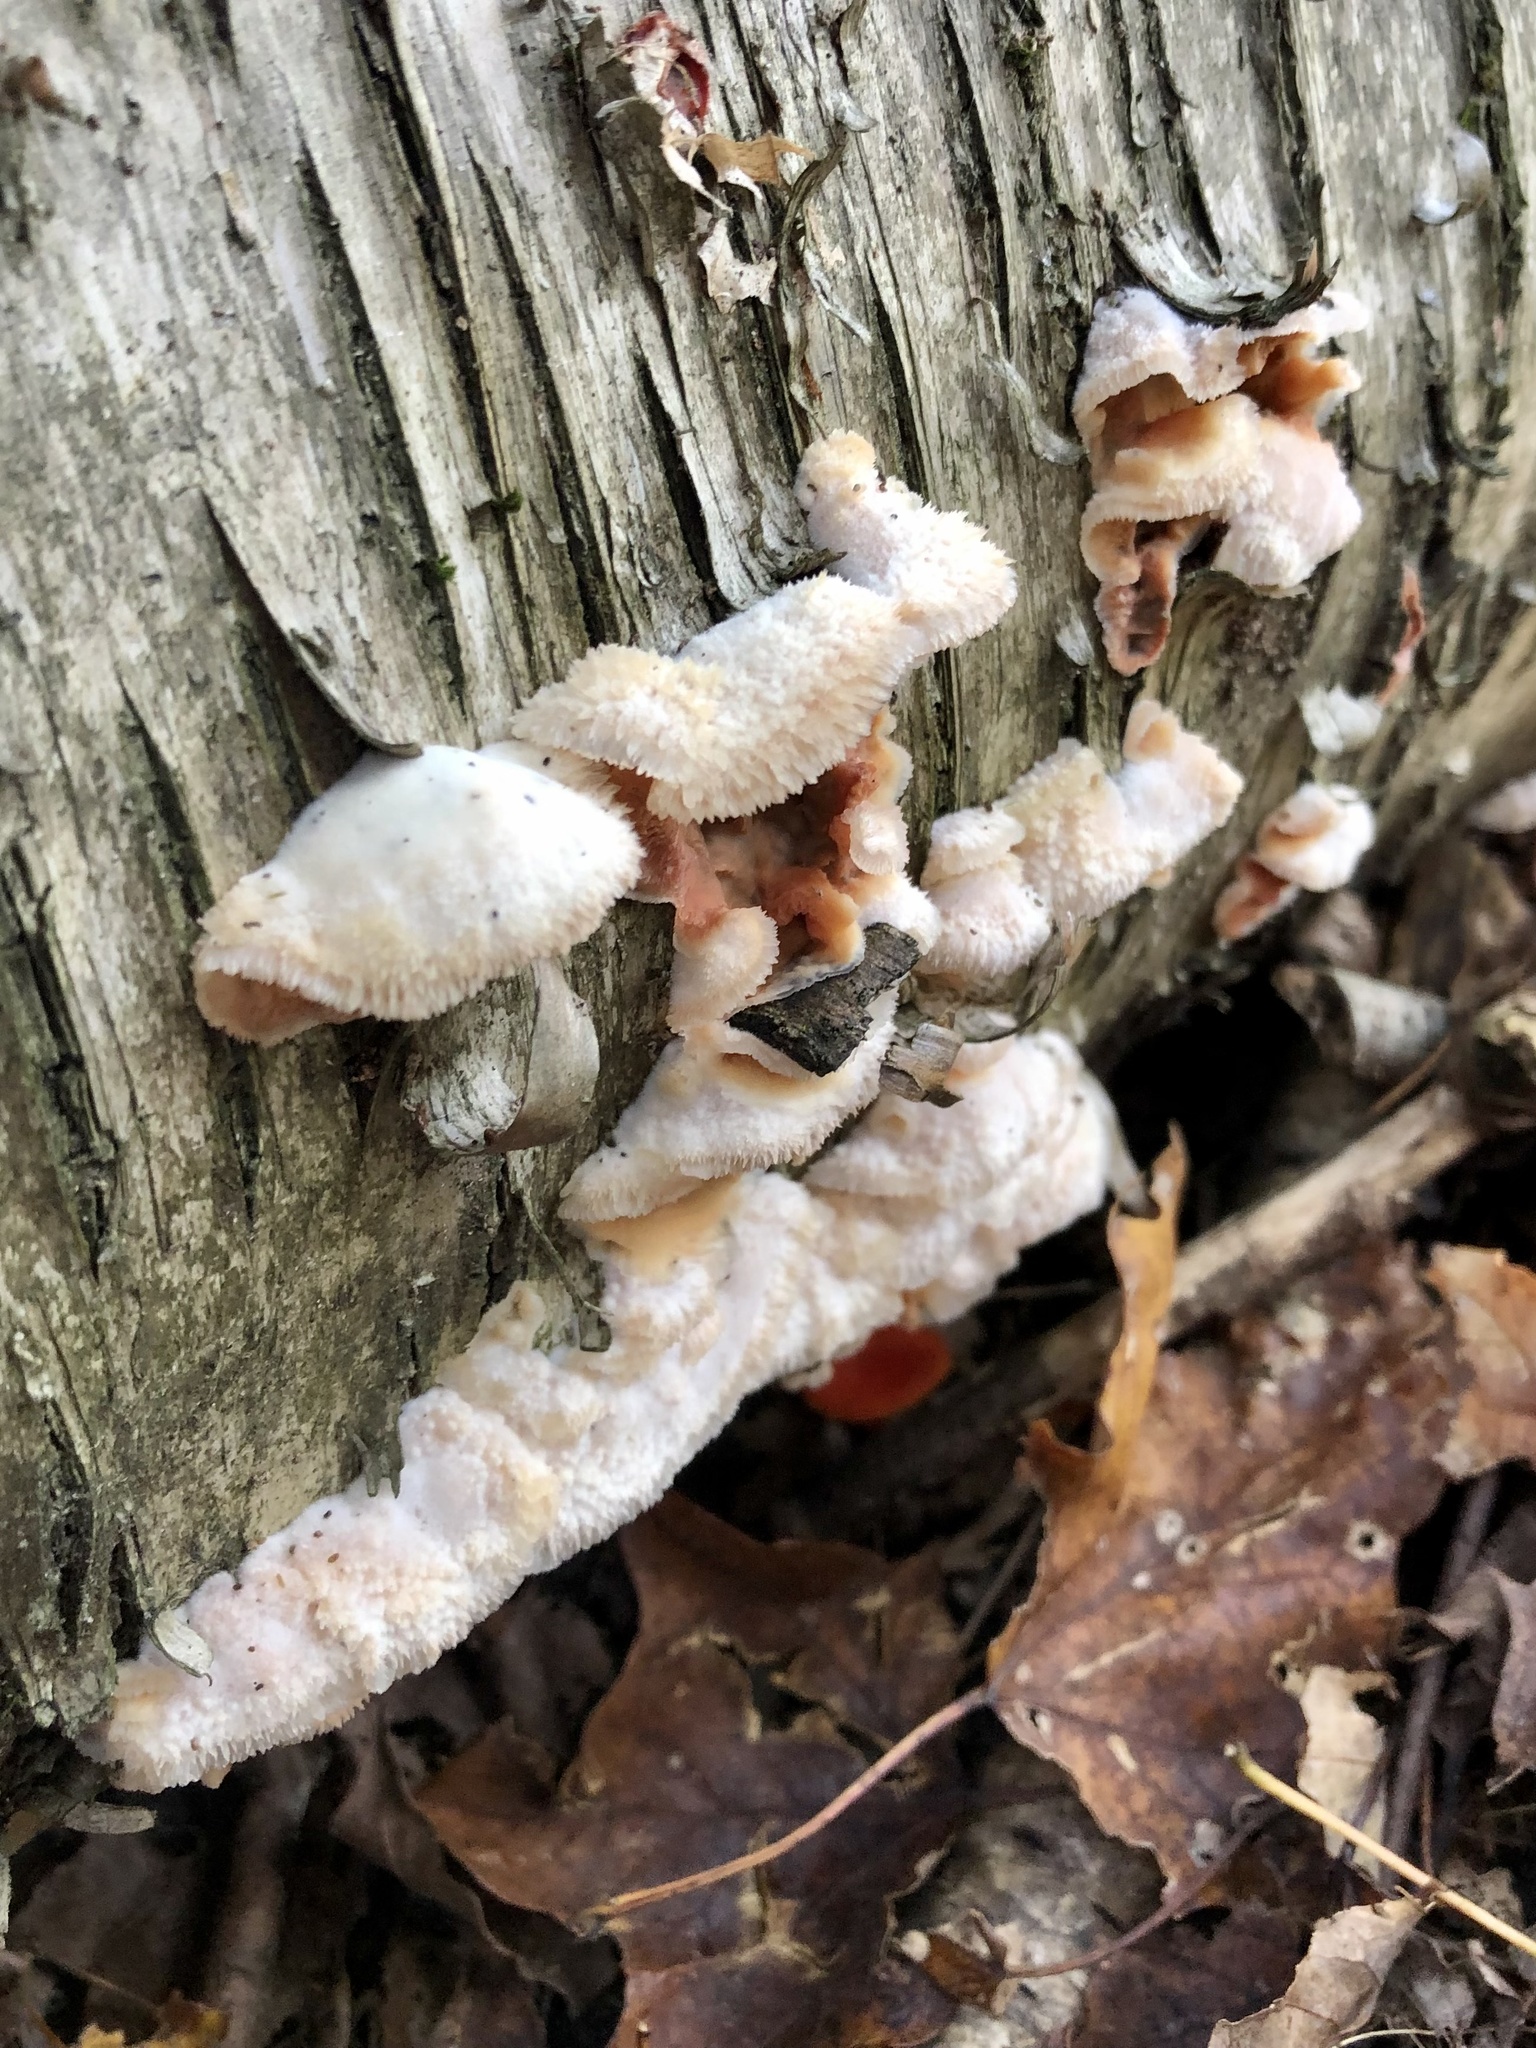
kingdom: Fungi
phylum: Basidiomycota
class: Agaricomycetes
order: Polyporales
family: Meruliaceae
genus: Phlebia
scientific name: Phlebia tremellosa
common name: Jelly rot
